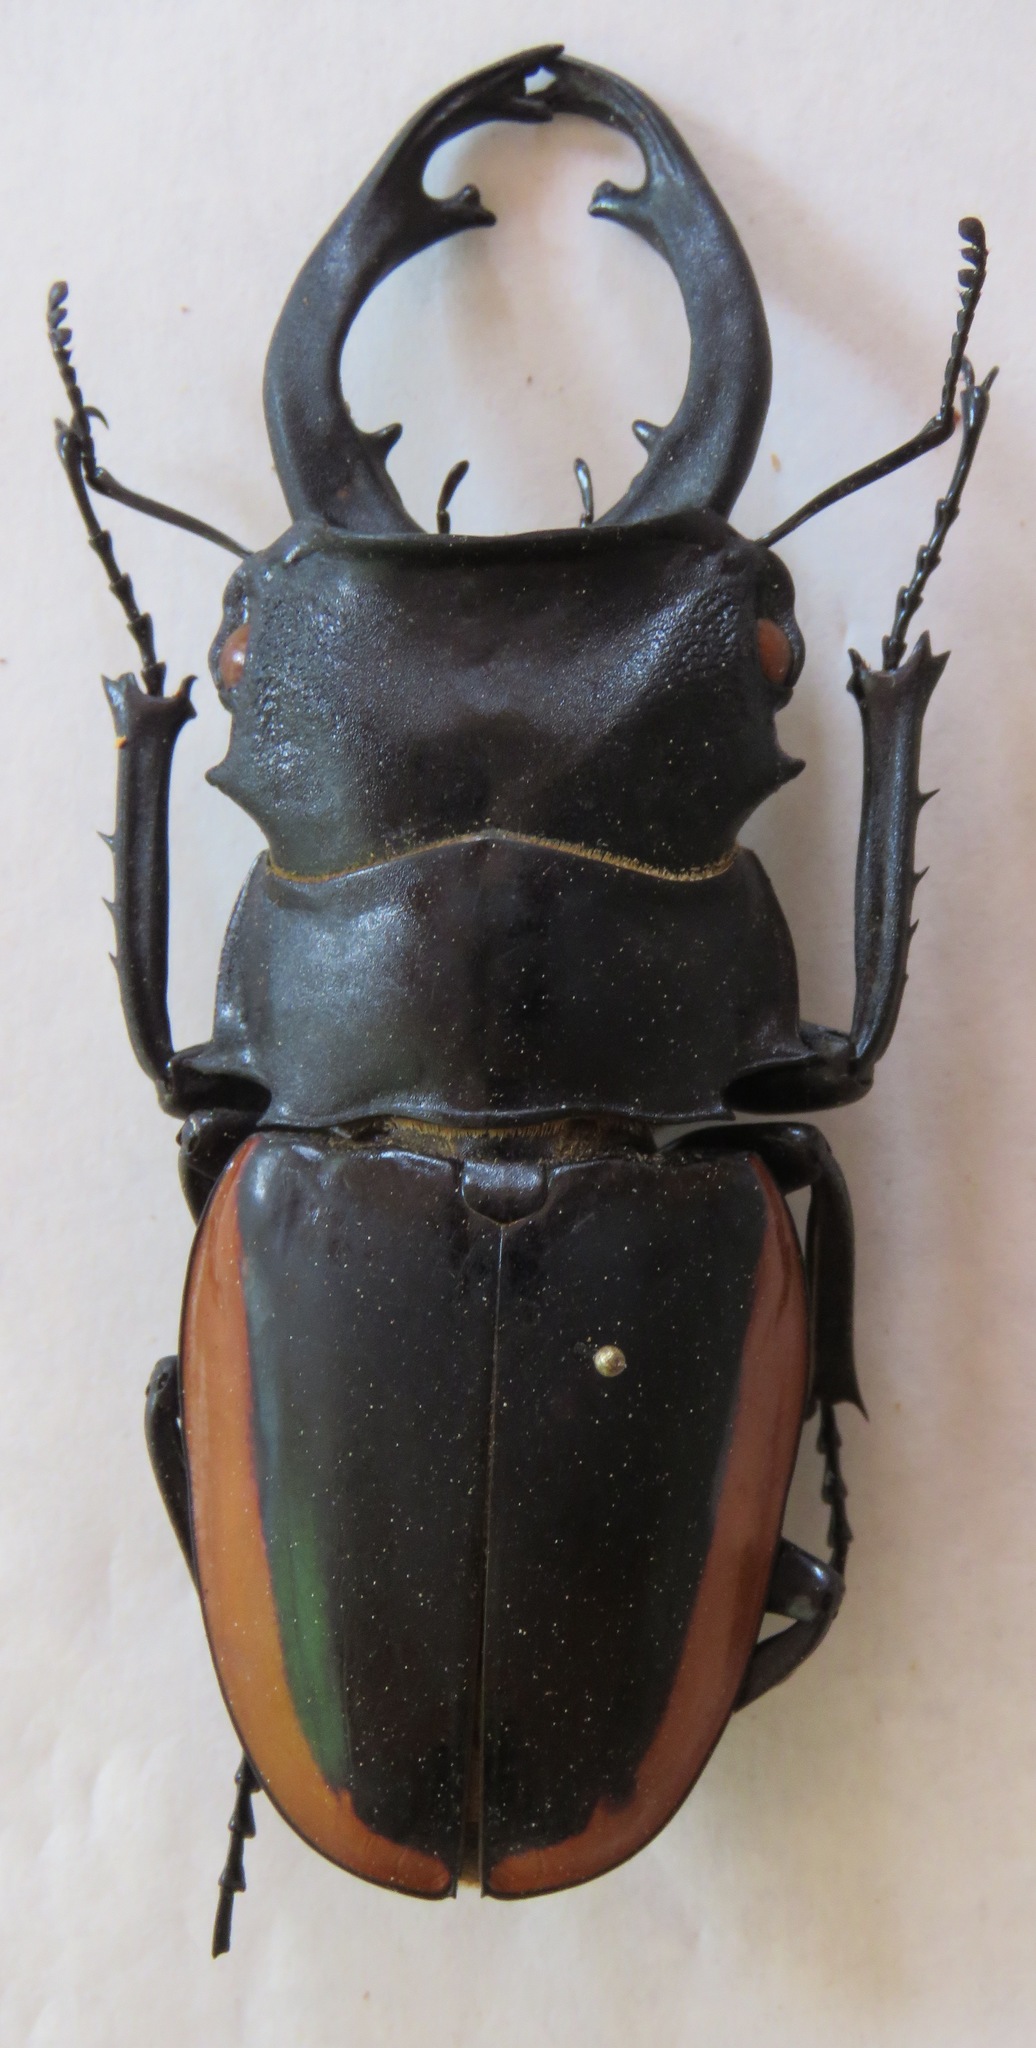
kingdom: Animalia
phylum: Arthropoda
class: Insecta
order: Coleoptera
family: Lucanidae
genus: Odontolabis
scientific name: Odontolabis cuvera
